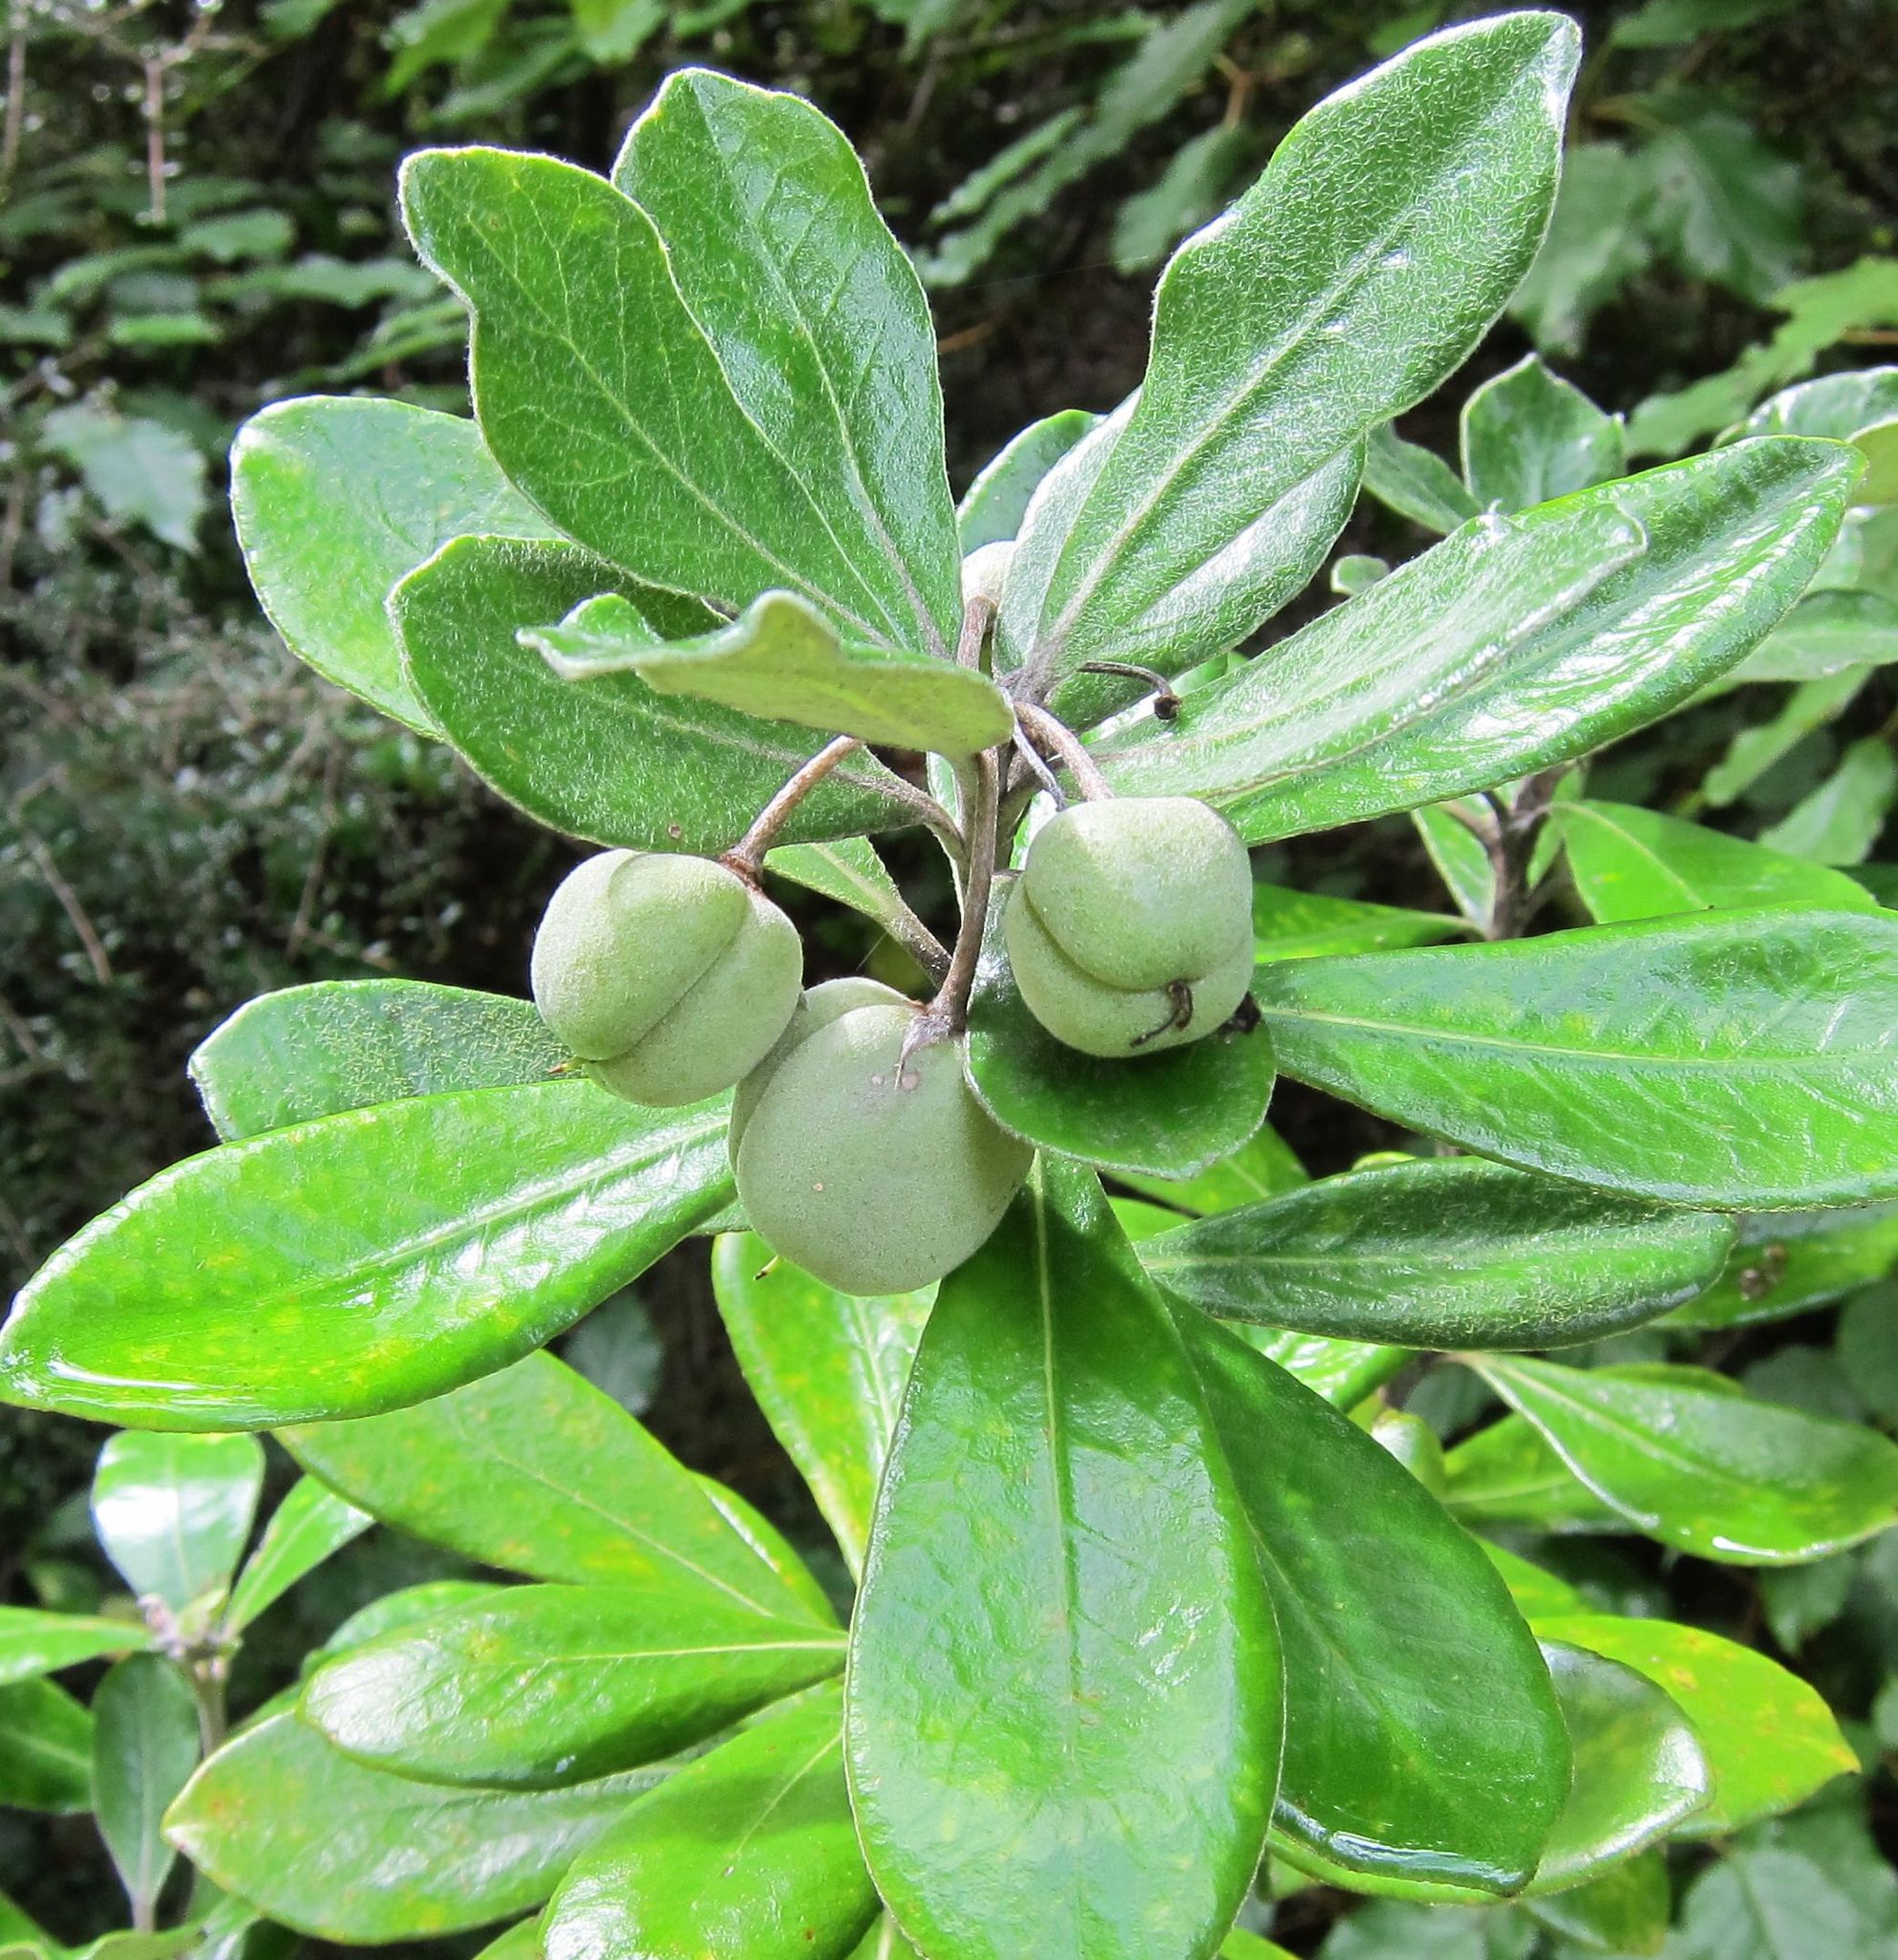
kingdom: Plantae
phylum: Tracheophyta
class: Magnoliopsida
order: Apiales
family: Pittosporaceae
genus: Pittosporum
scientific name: Pittosporum crassifolium
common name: Karo
